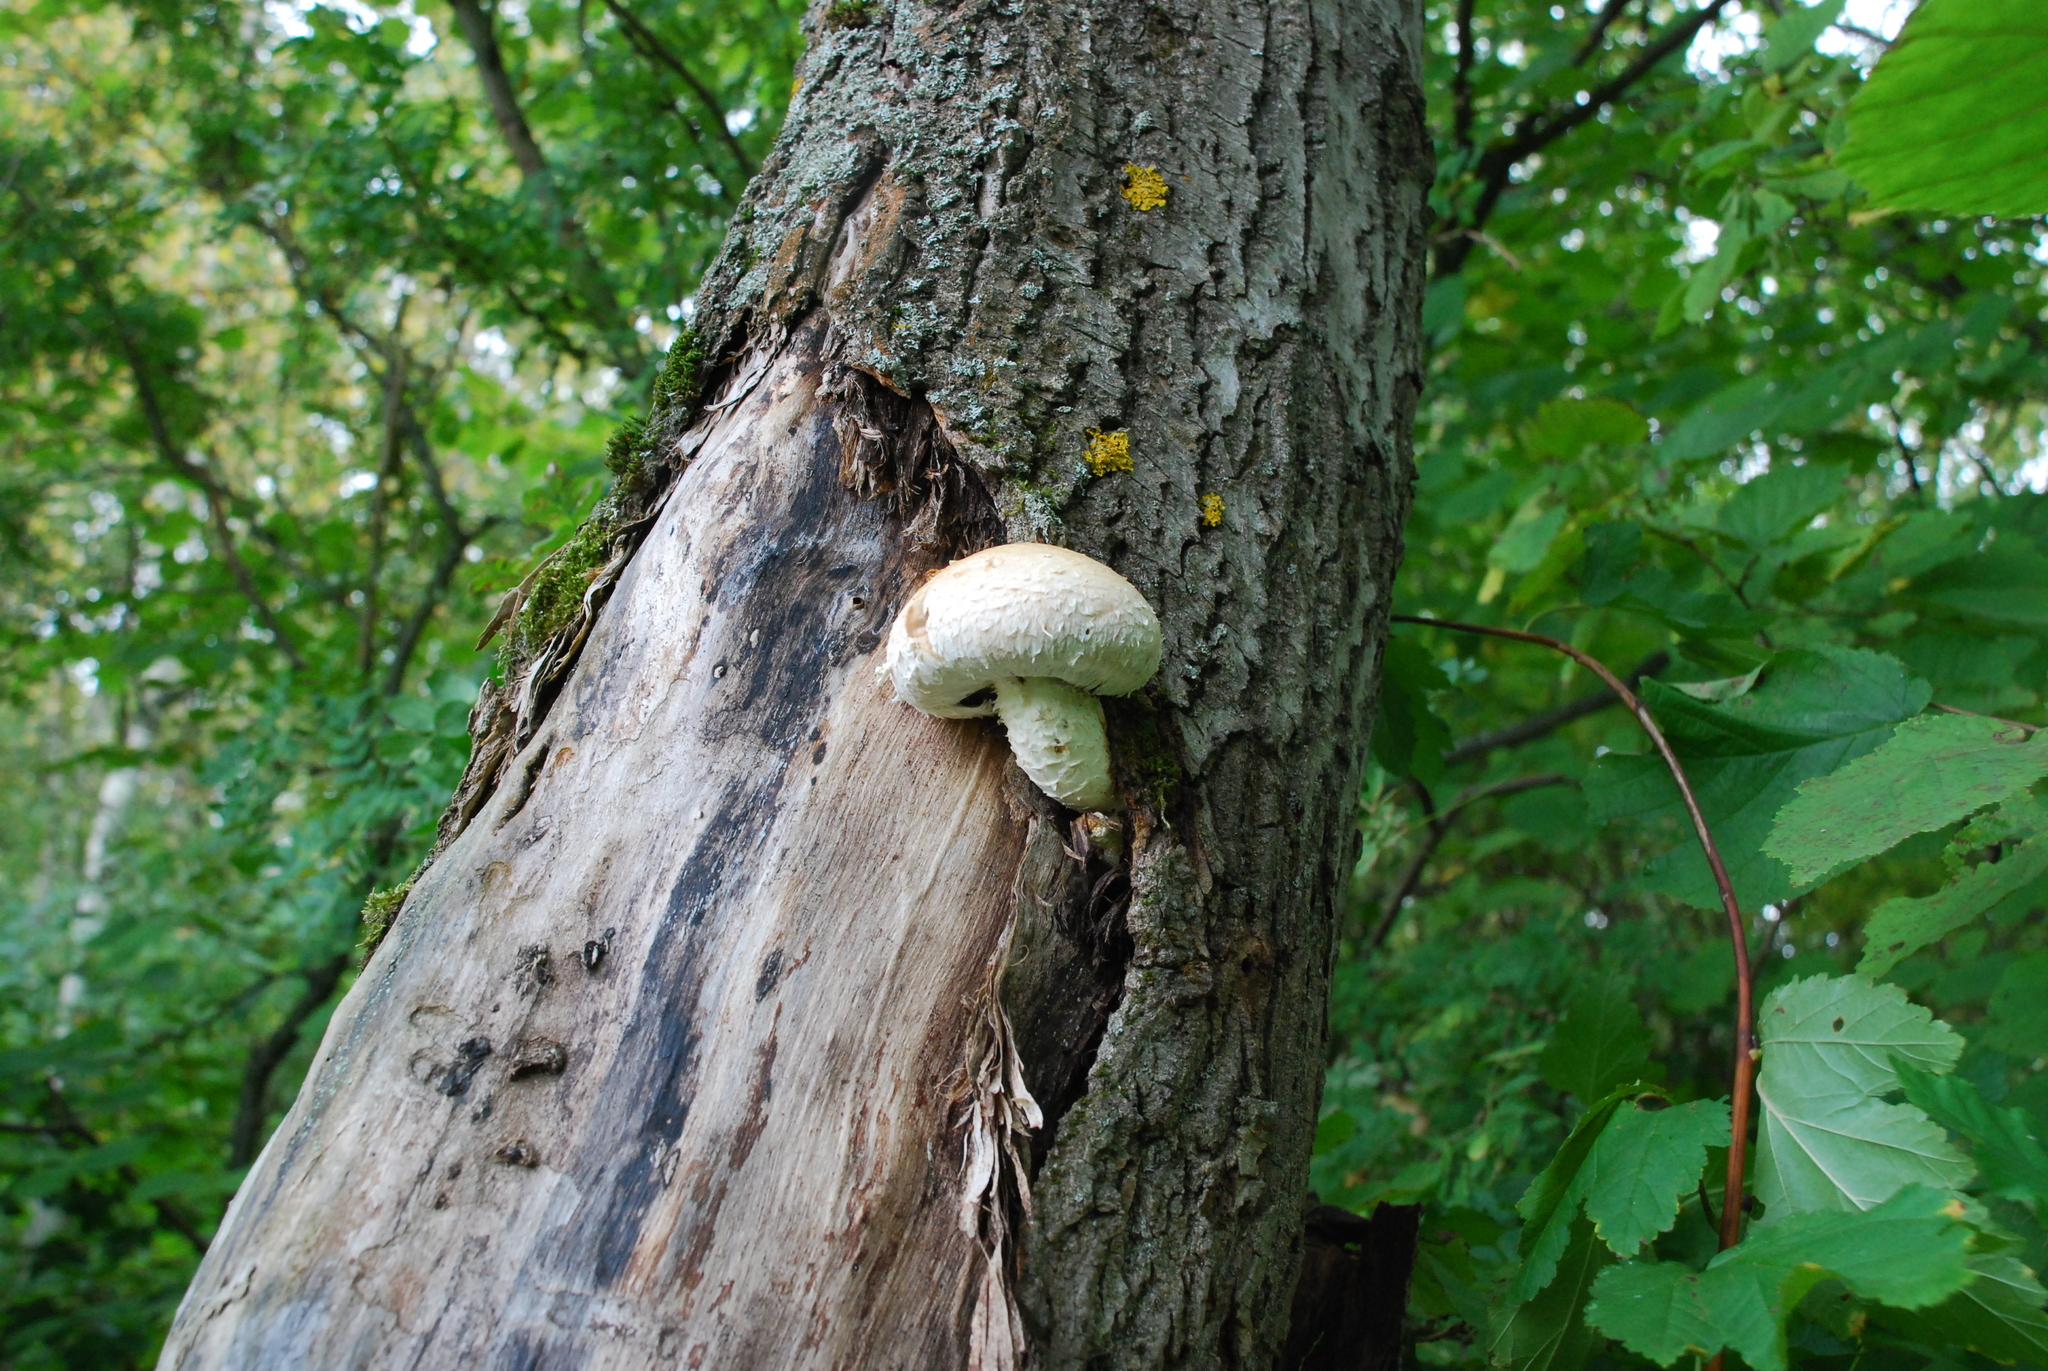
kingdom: Fungi
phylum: Basidiomycota
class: Agaricomycetes
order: Agaricales
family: Strophariaceae
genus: Pholiota
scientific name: Pholiota populnea
